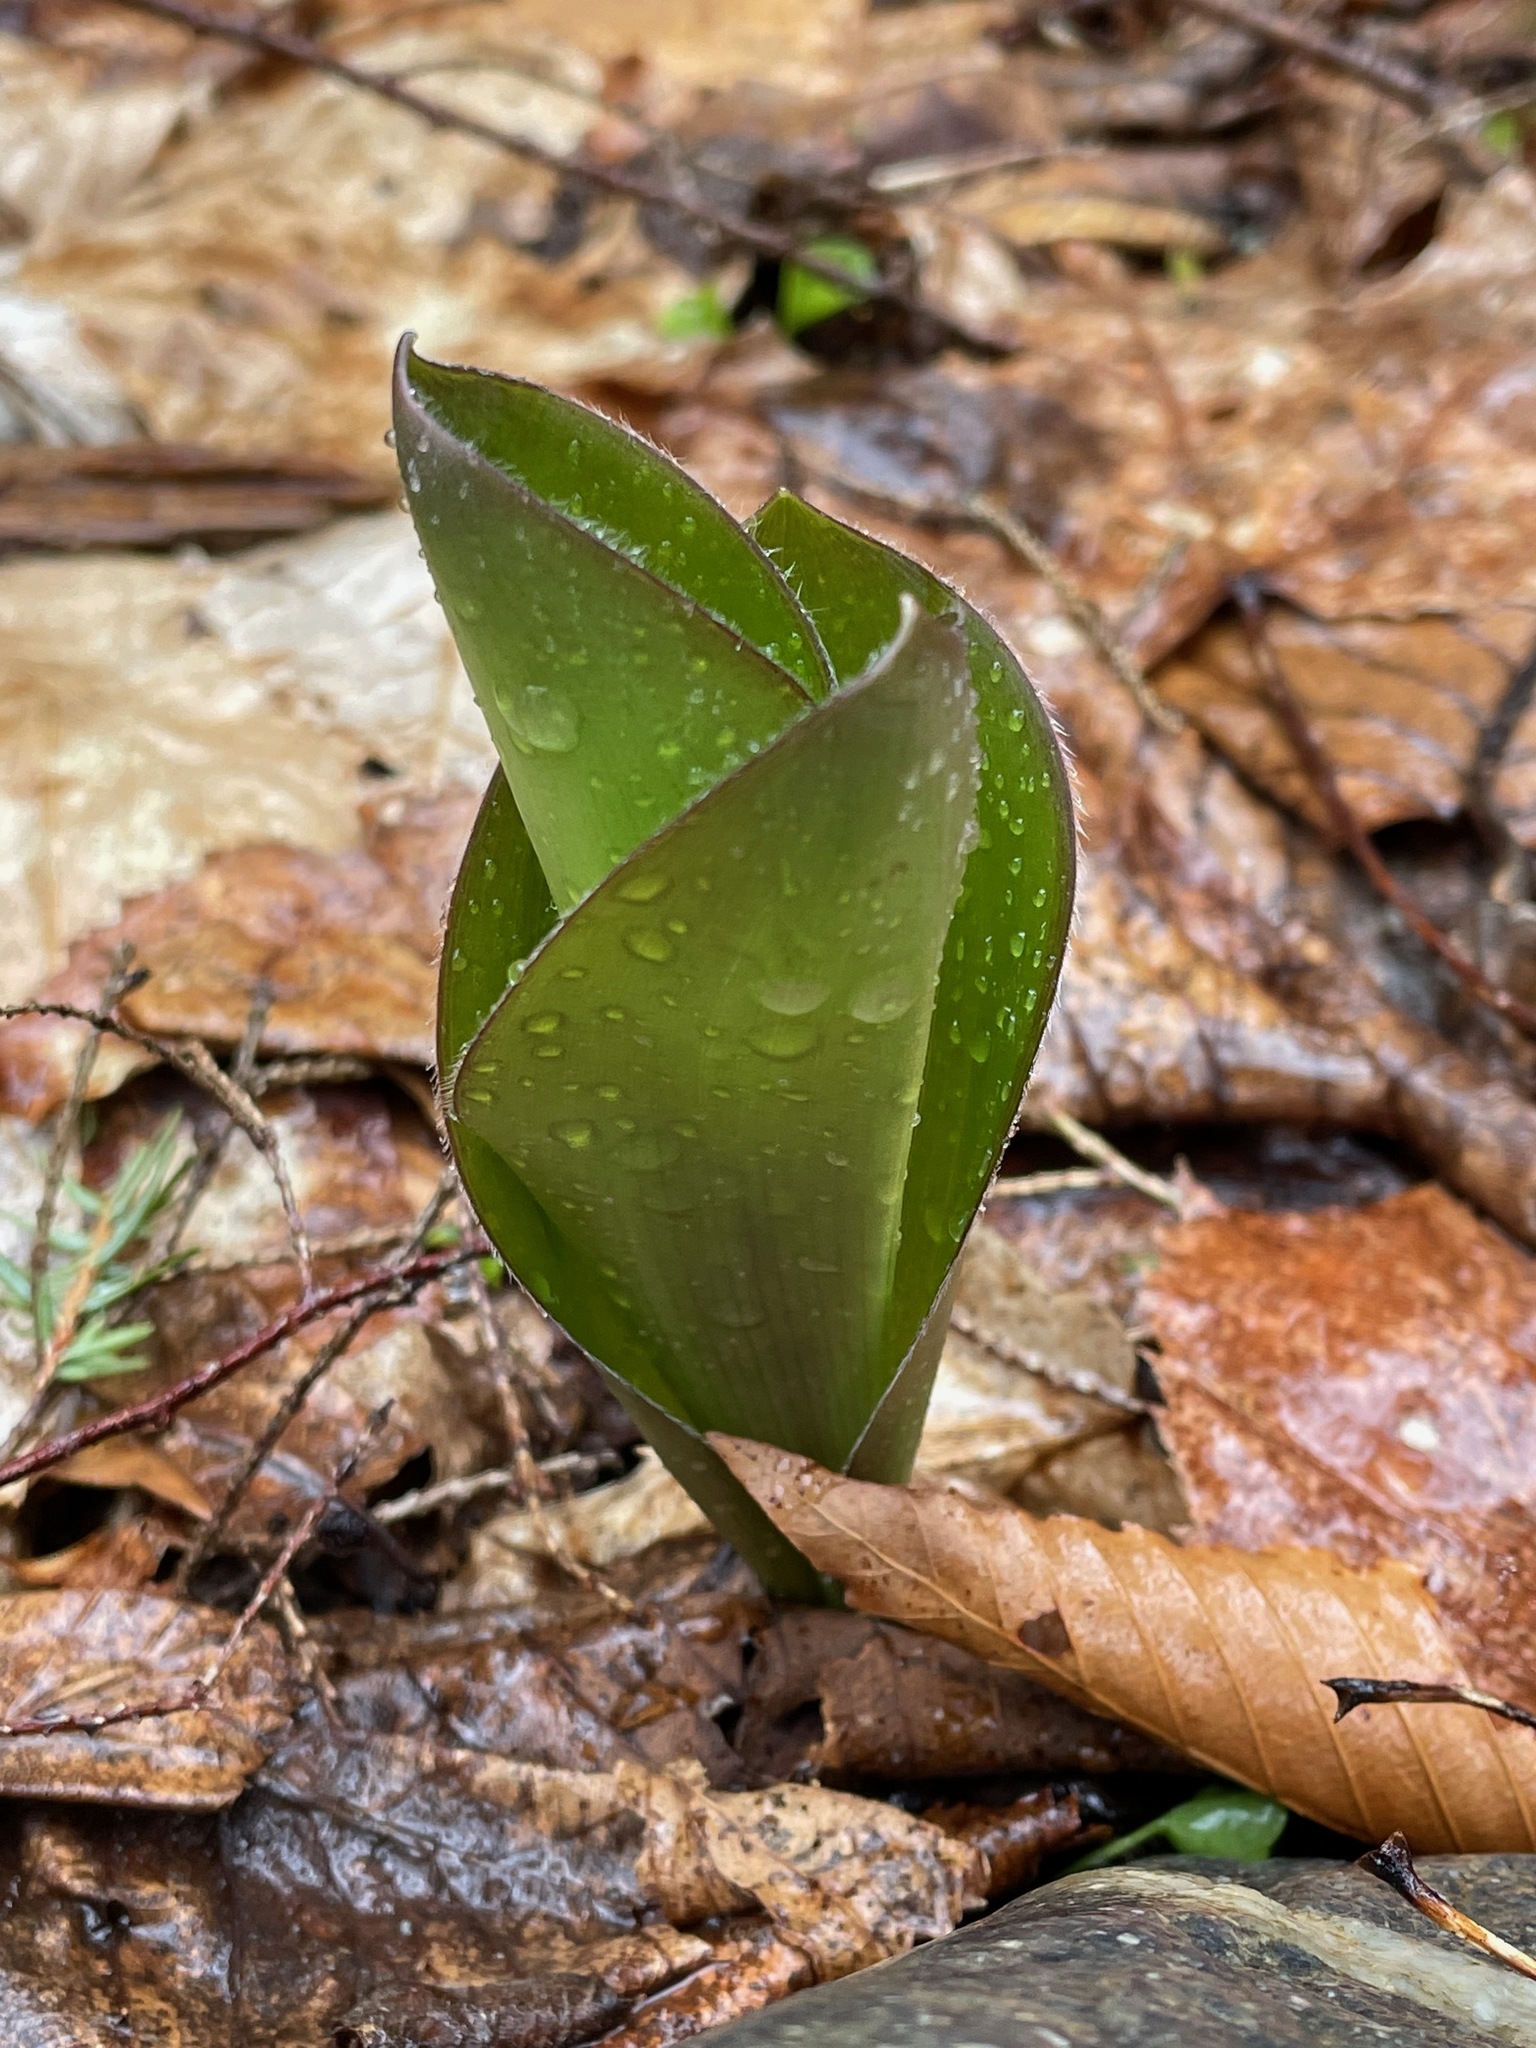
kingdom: Plantae
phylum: Tracheophyta
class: Liliopsida
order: Liliales
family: Liliaceae
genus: Clintonia
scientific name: Clintonia borealis
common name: Yellow clintonia
